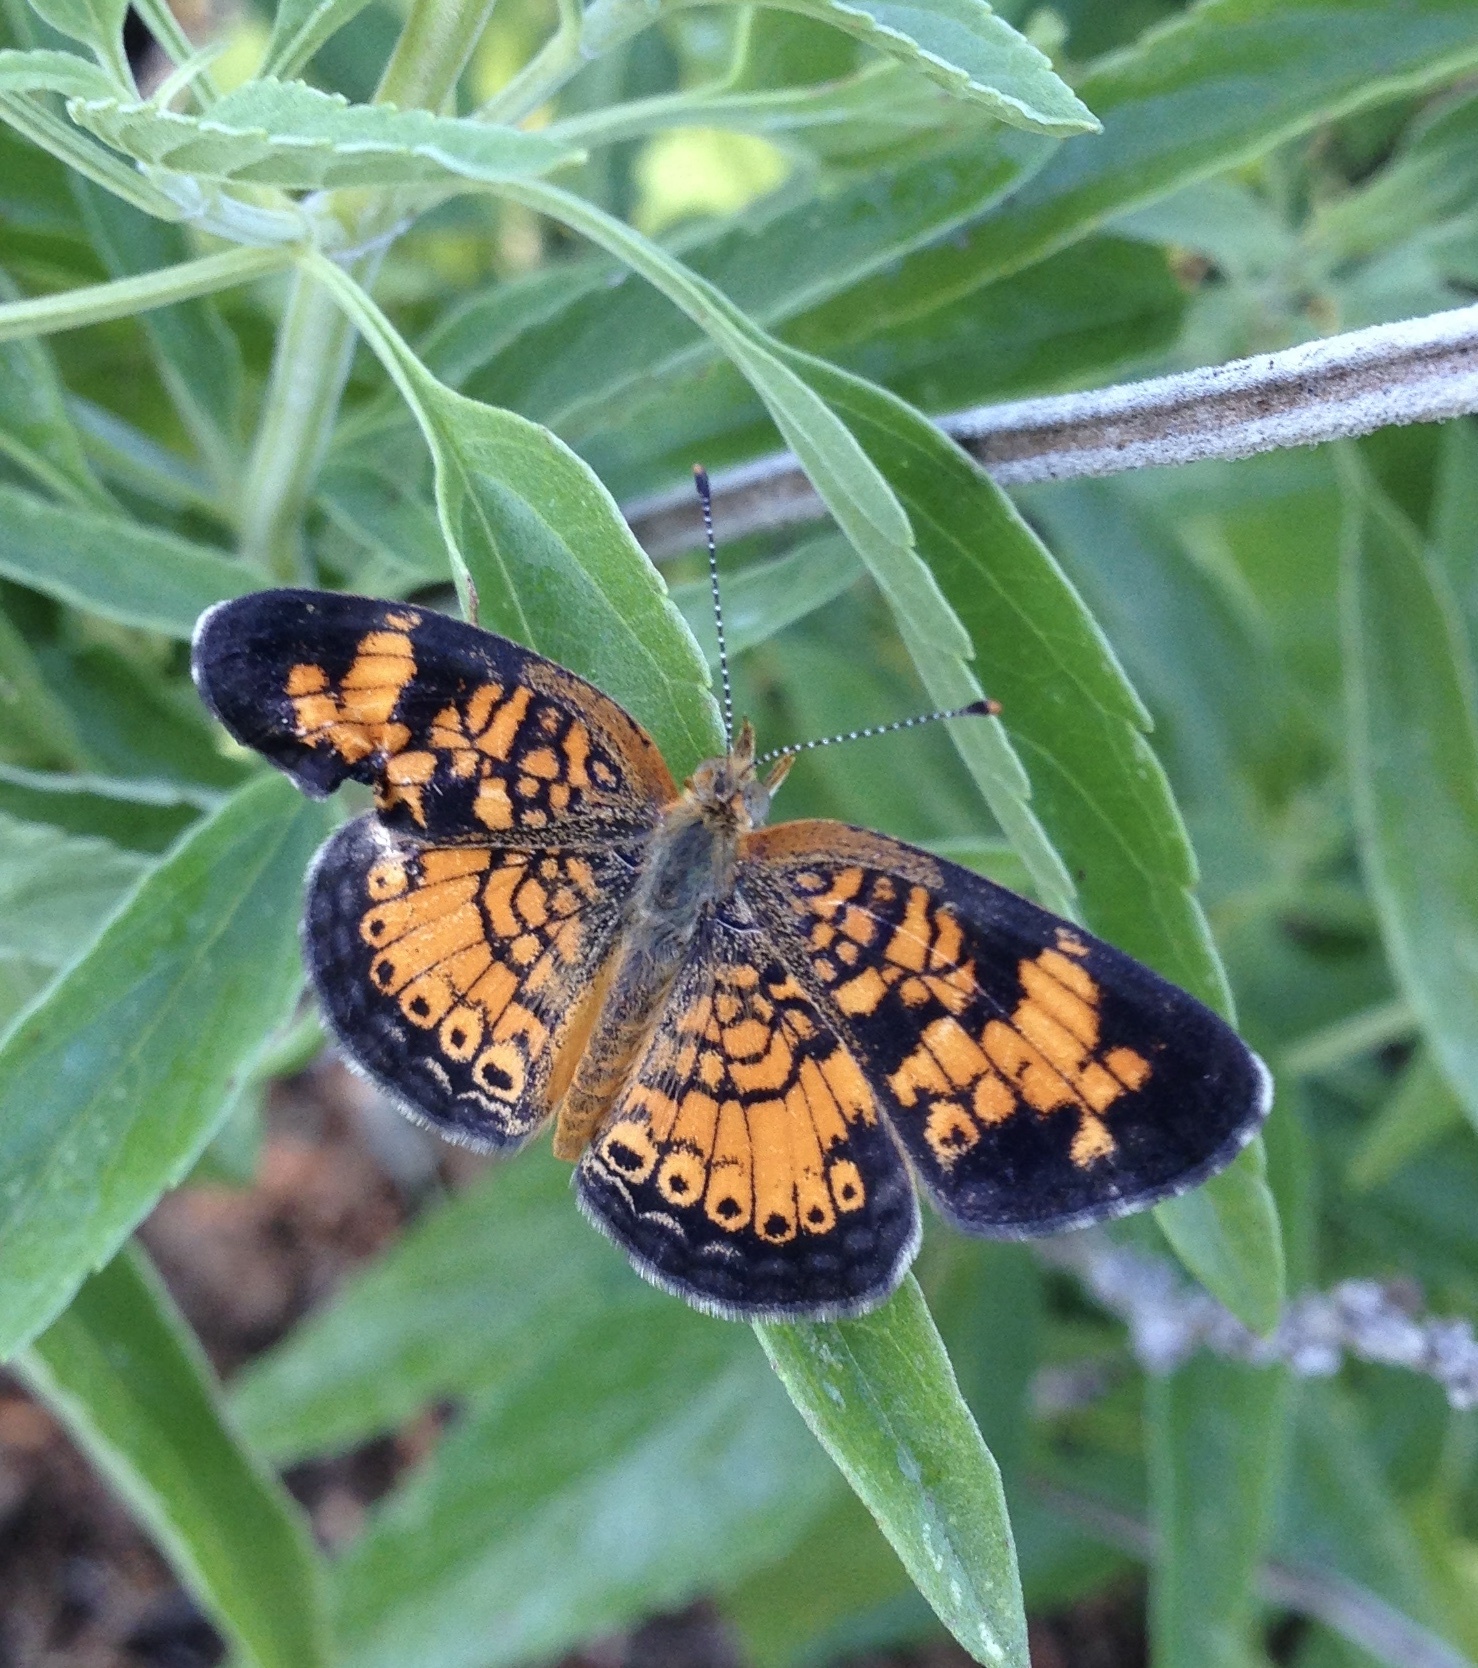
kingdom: Animalia
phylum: Arthropoda
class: Insecta
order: Lepidoptera
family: Nymphalidae
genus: Phyciodes
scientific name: Phyciodes tharos
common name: Pearl crescent
